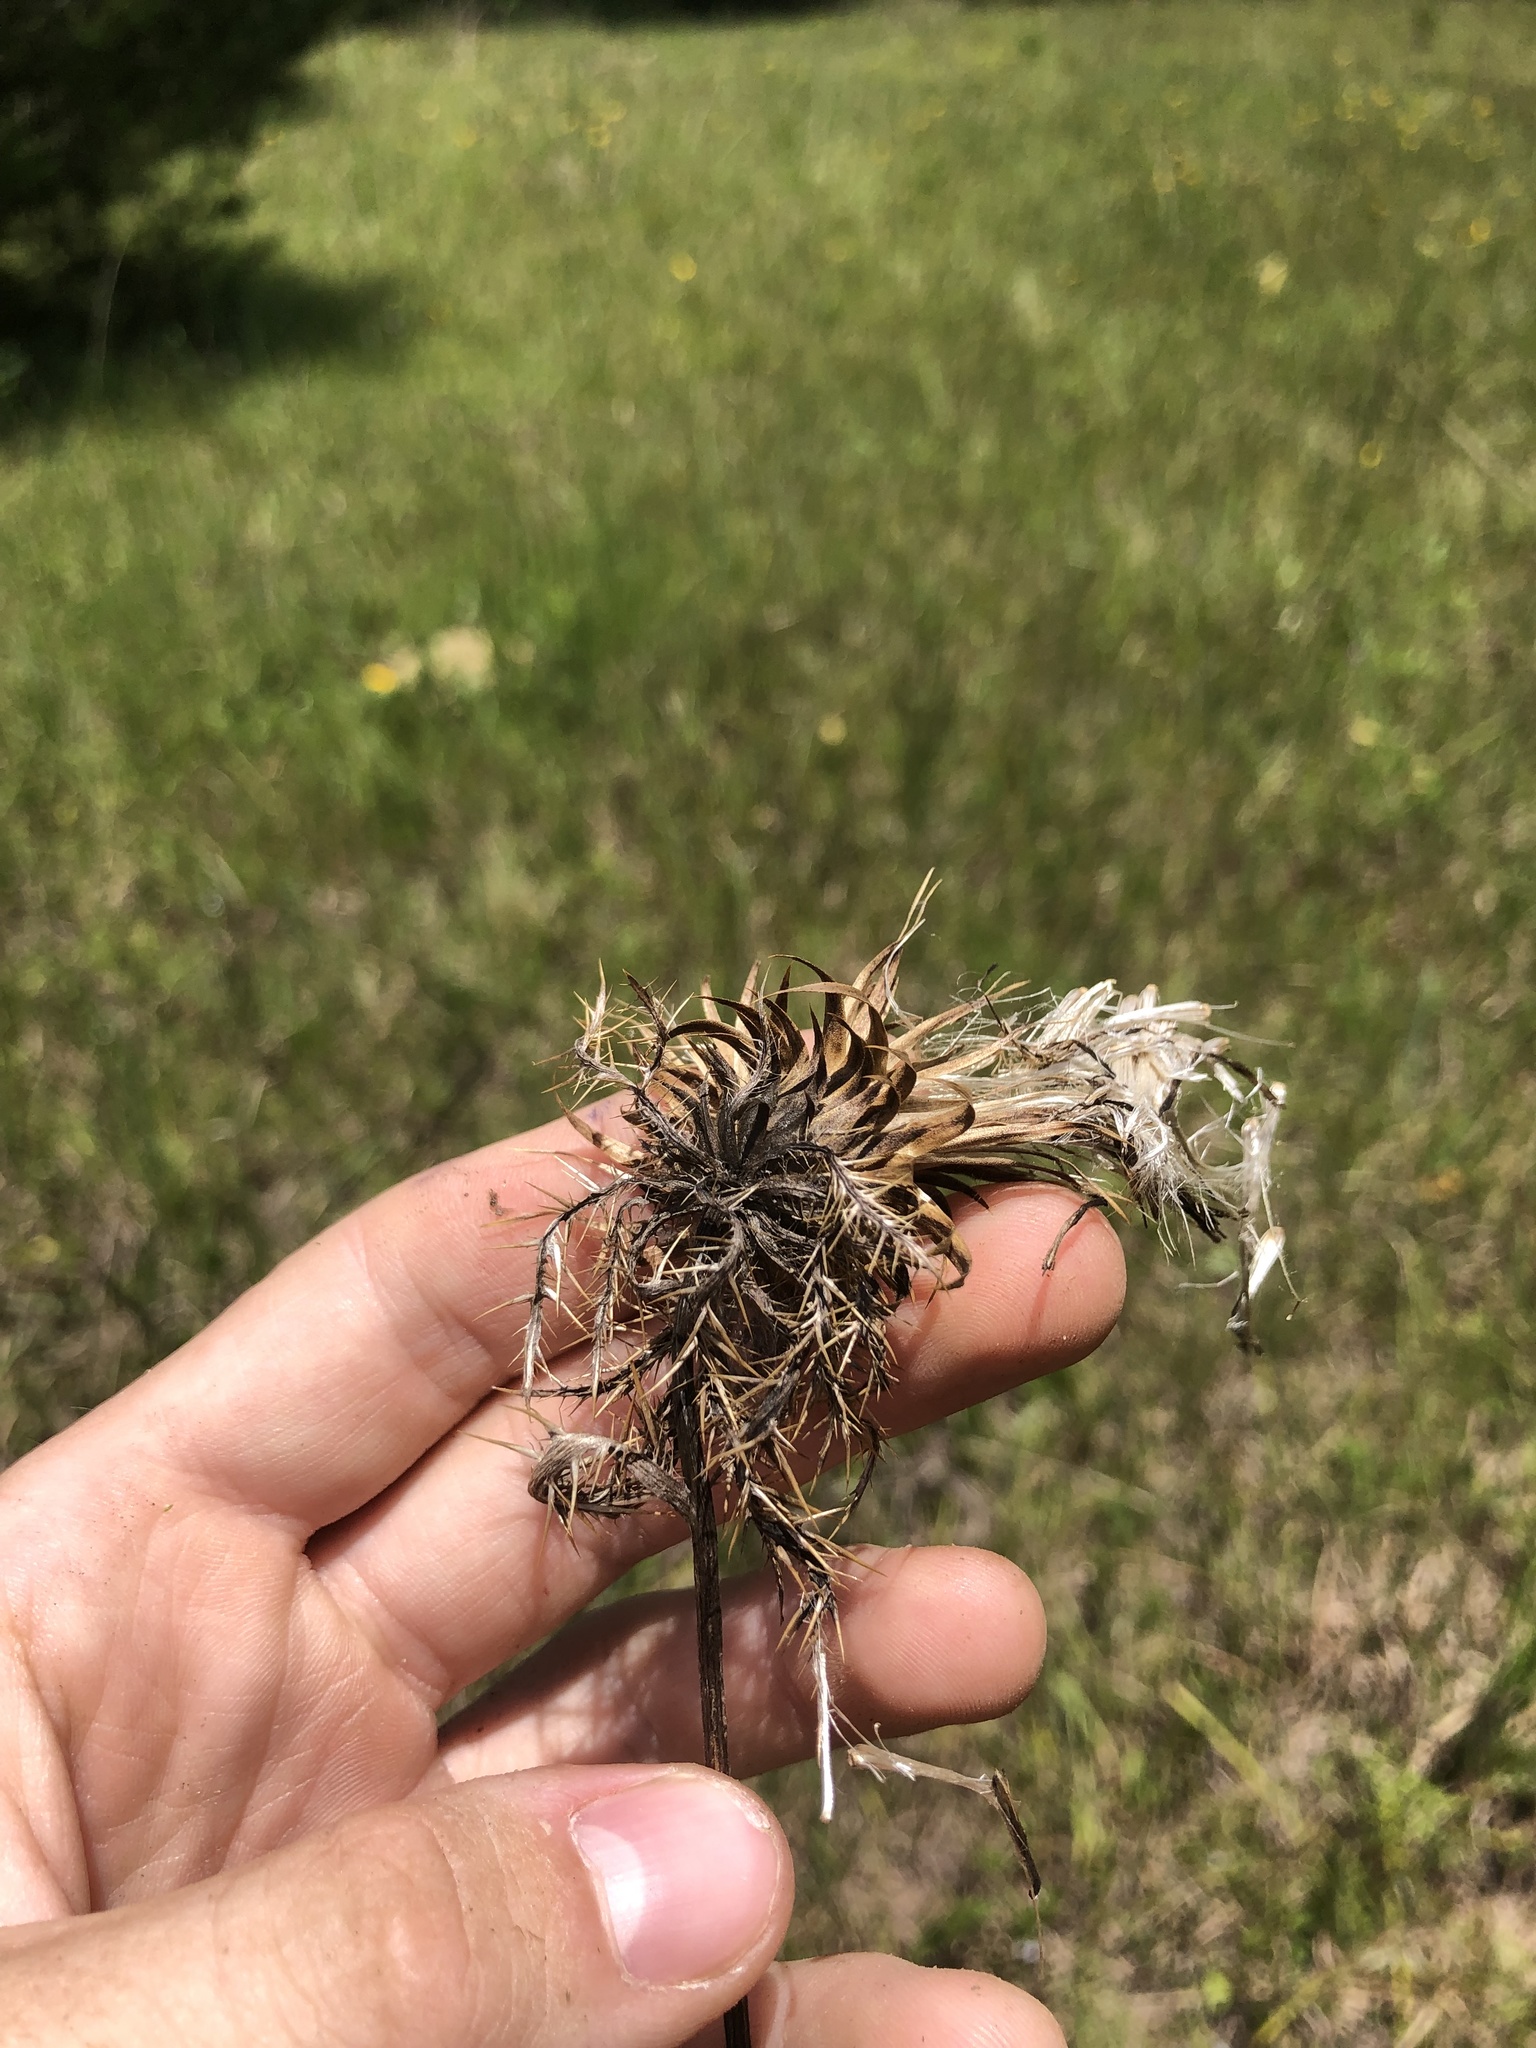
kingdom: Plantae
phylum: Tracheophyta
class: Magnoliopsida
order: Asterales
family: Asteraceae
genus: Cirsium
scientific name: Cirsium horridulum
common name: Bristly thistle
